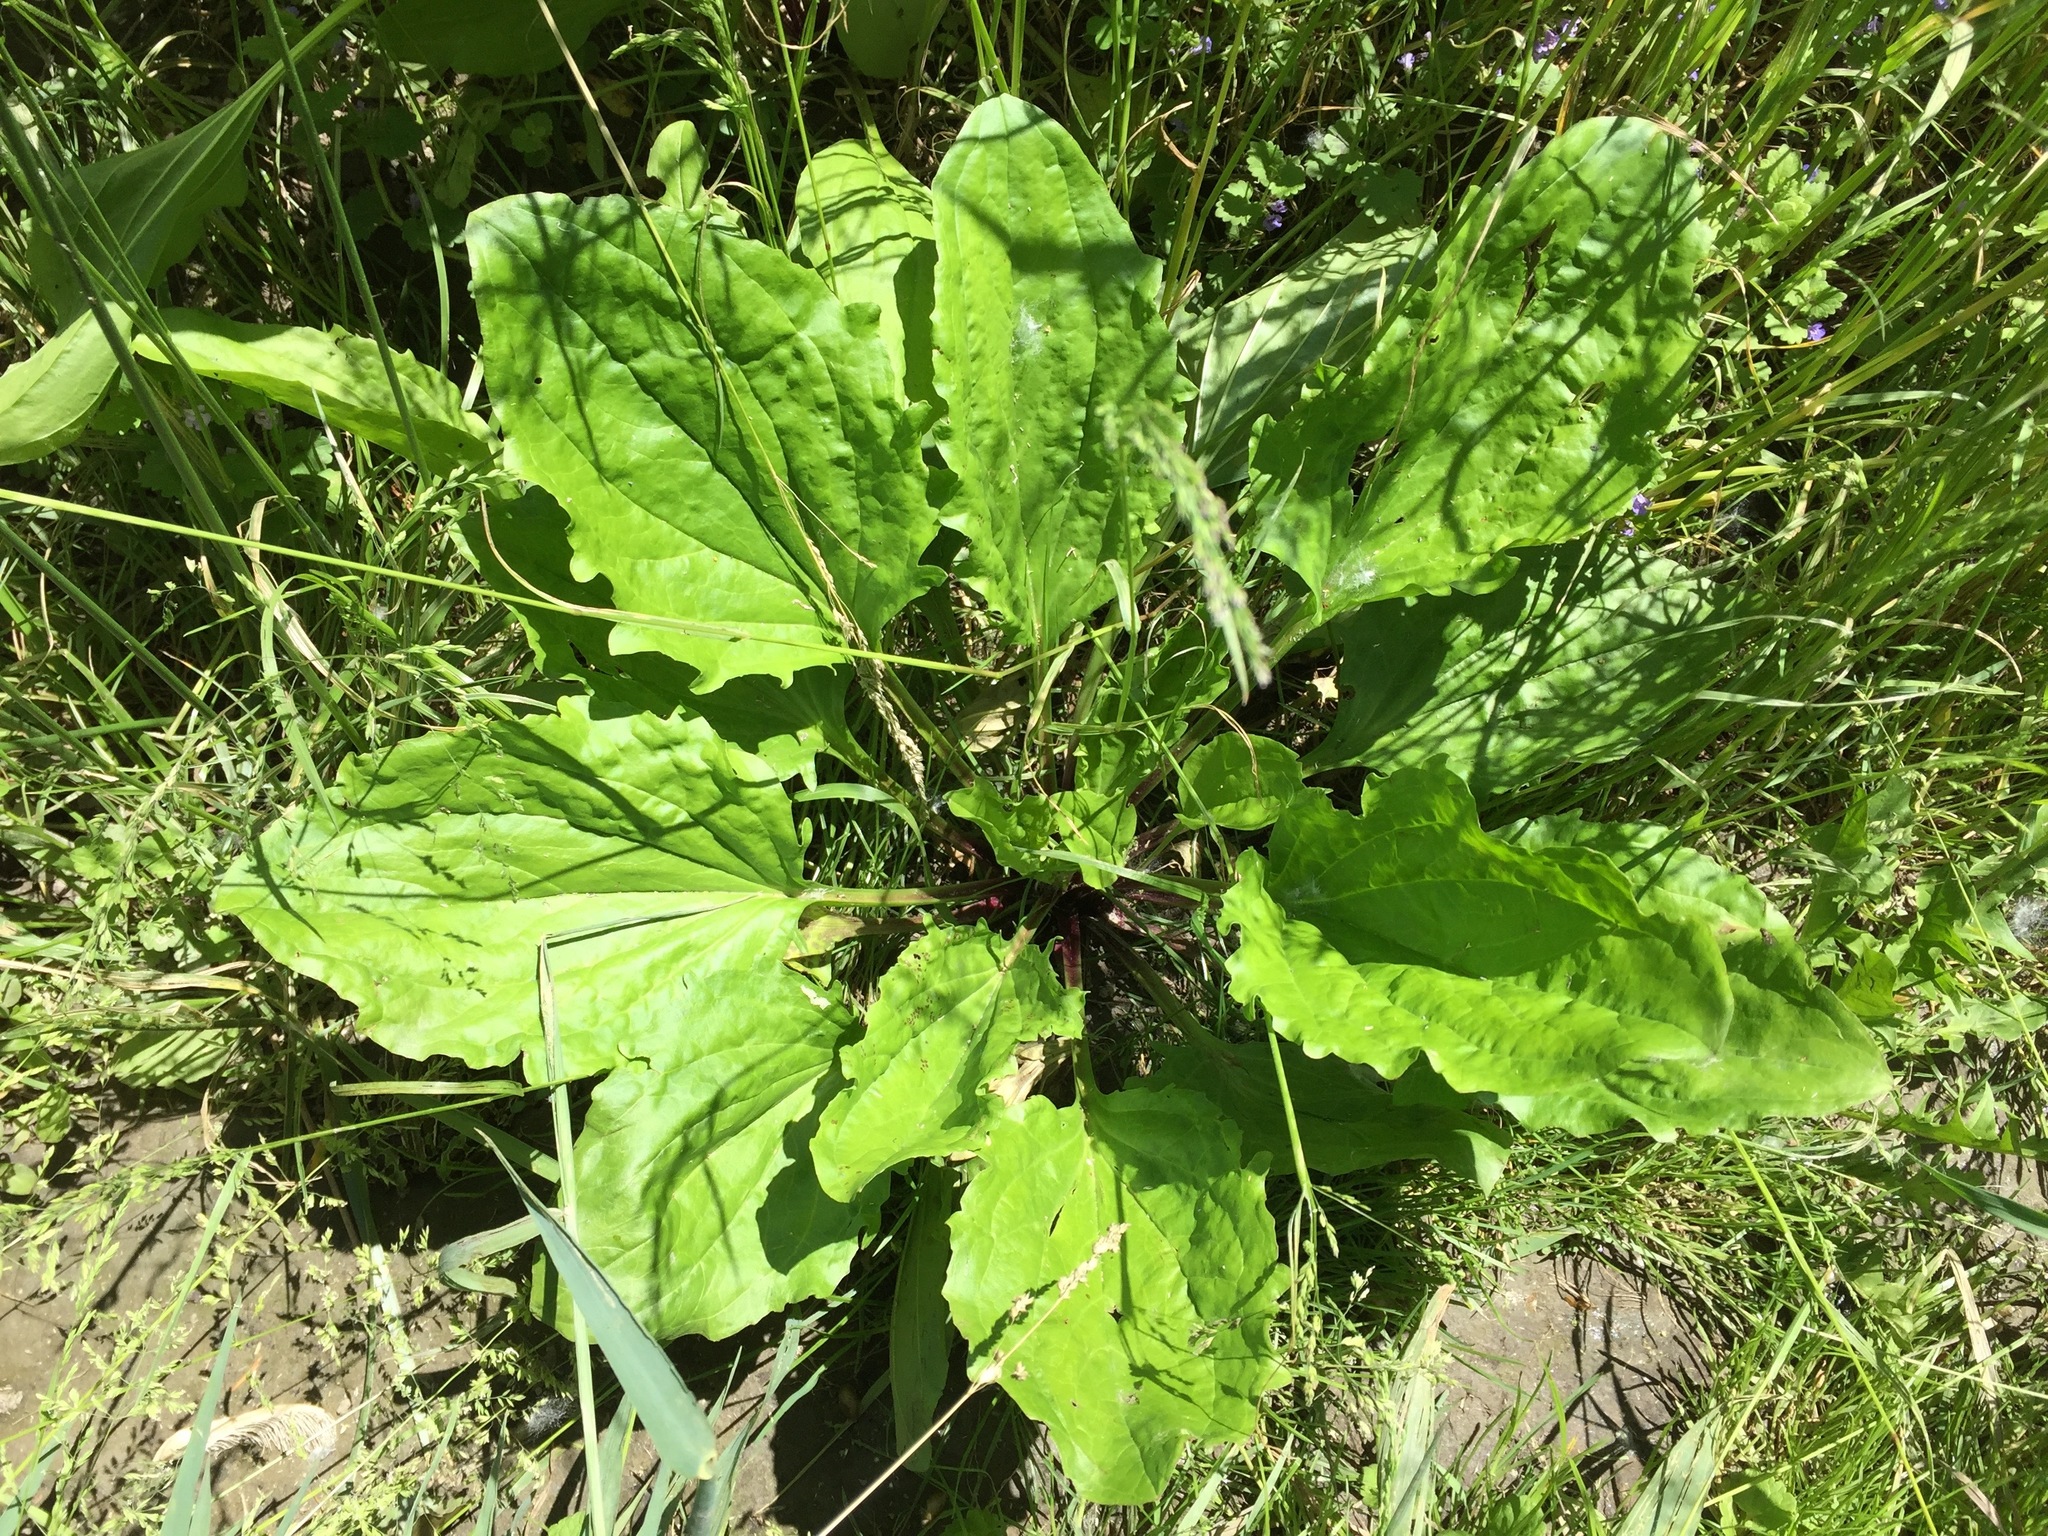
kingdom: Plantae
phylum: Tracheophyta
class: Magnoliopsida
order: Lamiales
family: Plantaginaceae
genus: Plantago
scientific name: Plantago rugelii
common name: American plantain
